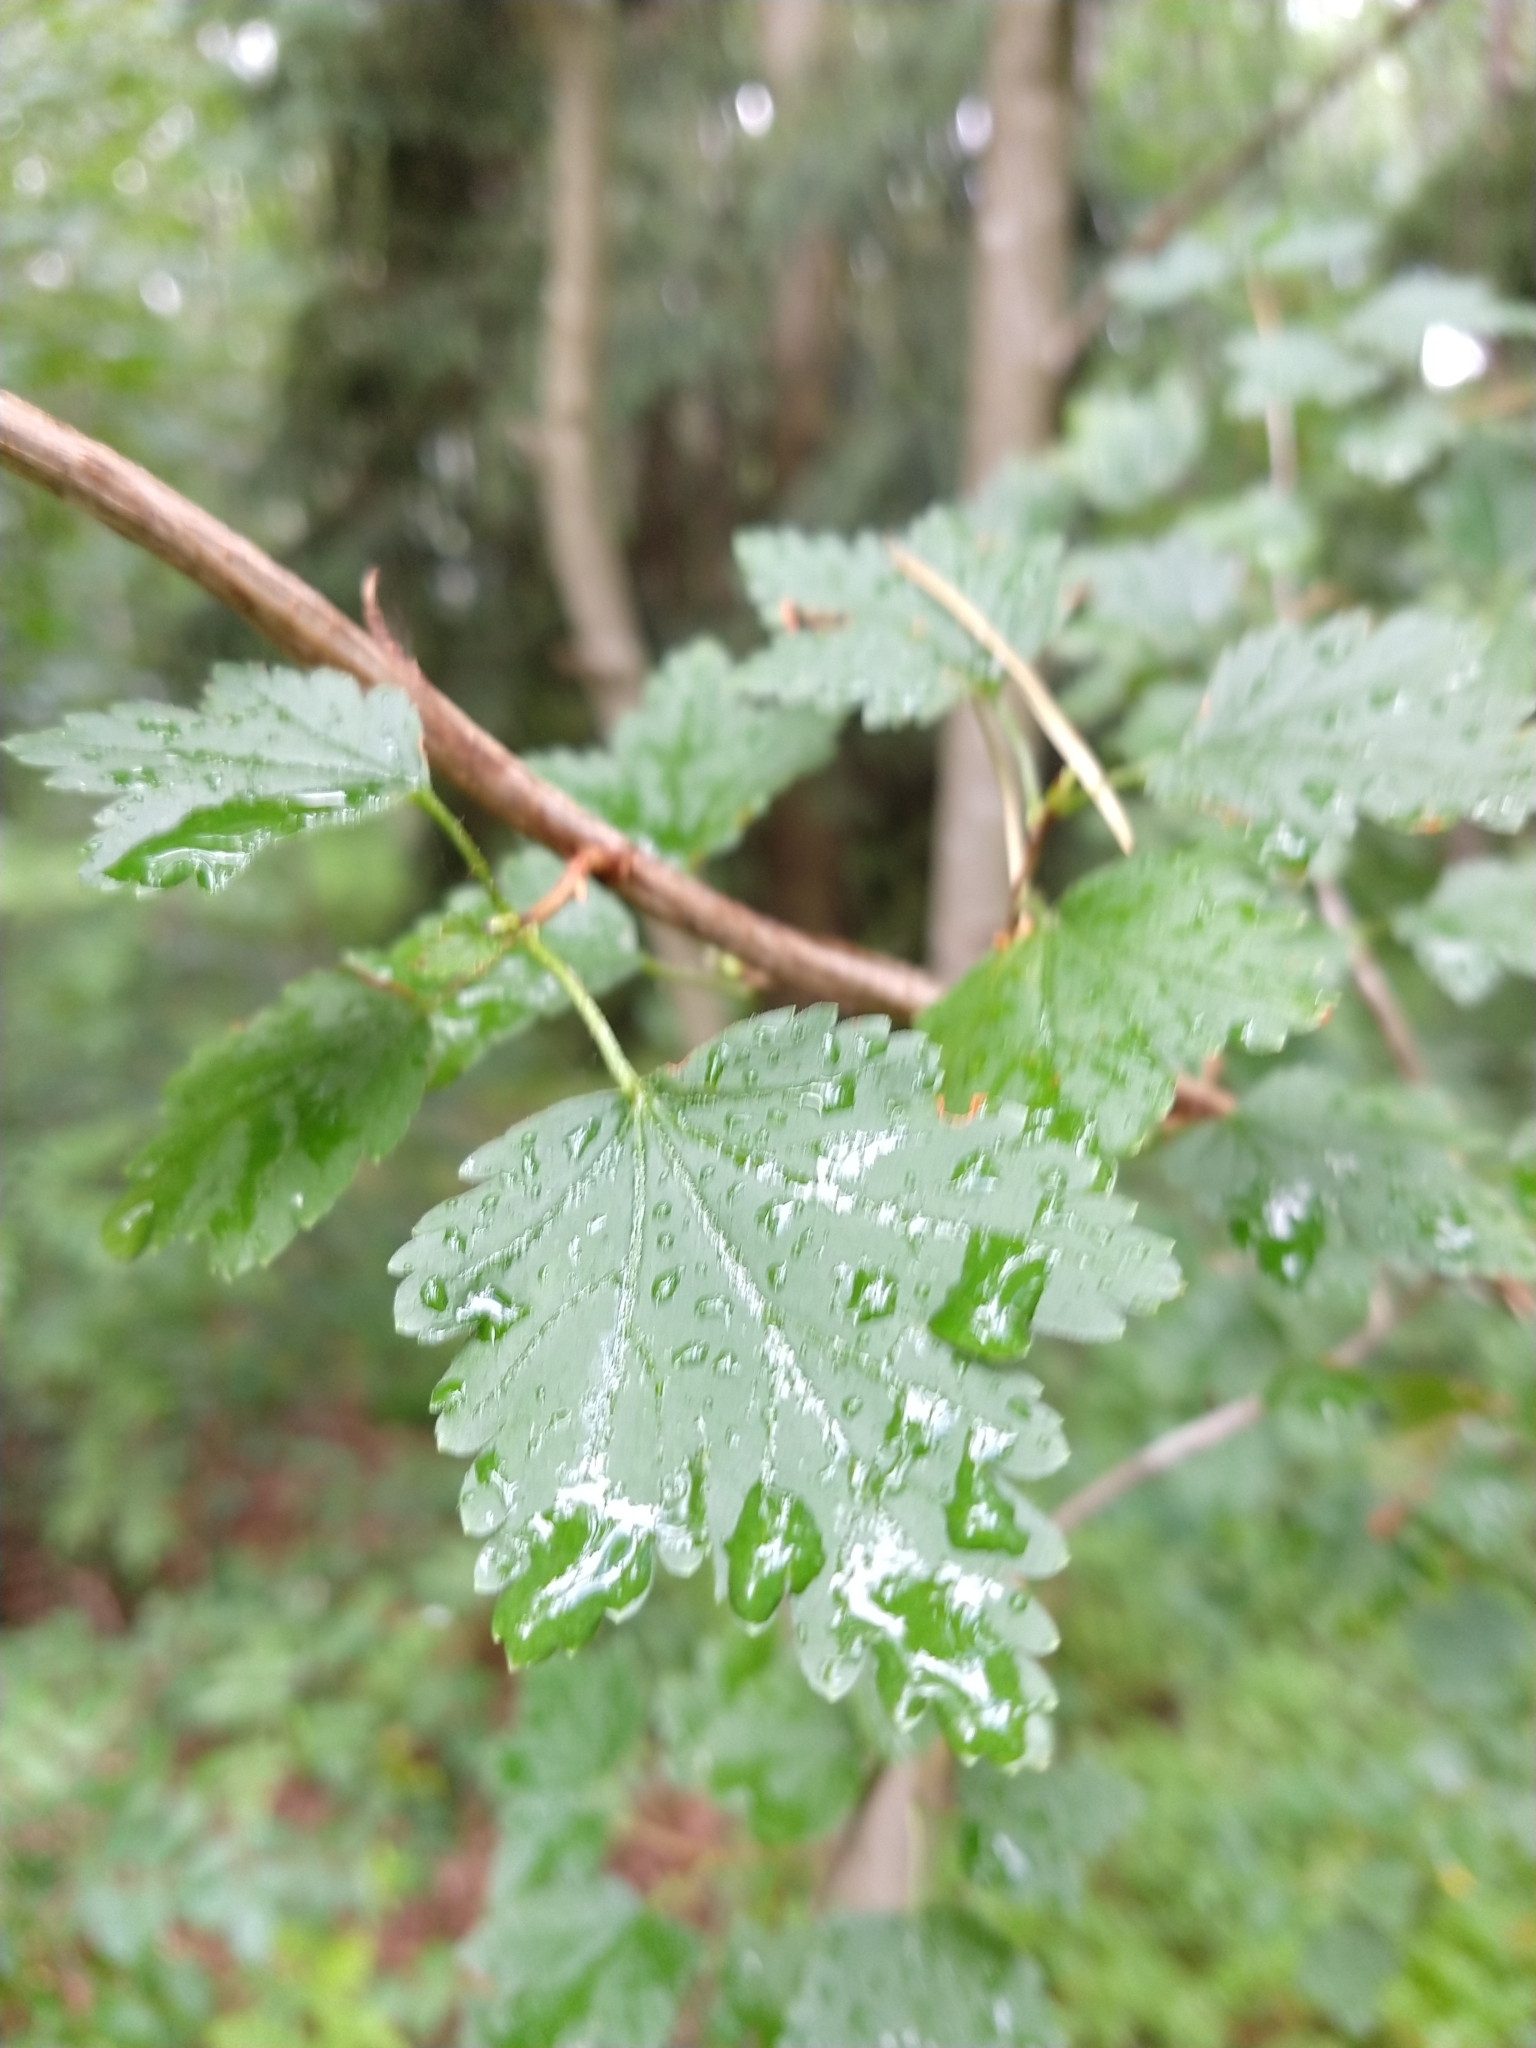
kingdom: Plantae
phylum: Tracheophyta
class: Magnoliopsida
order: Saxifragales
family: Grossulariaceae
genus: Ribes
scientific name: Ribes alpinum
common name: Alpine currant
